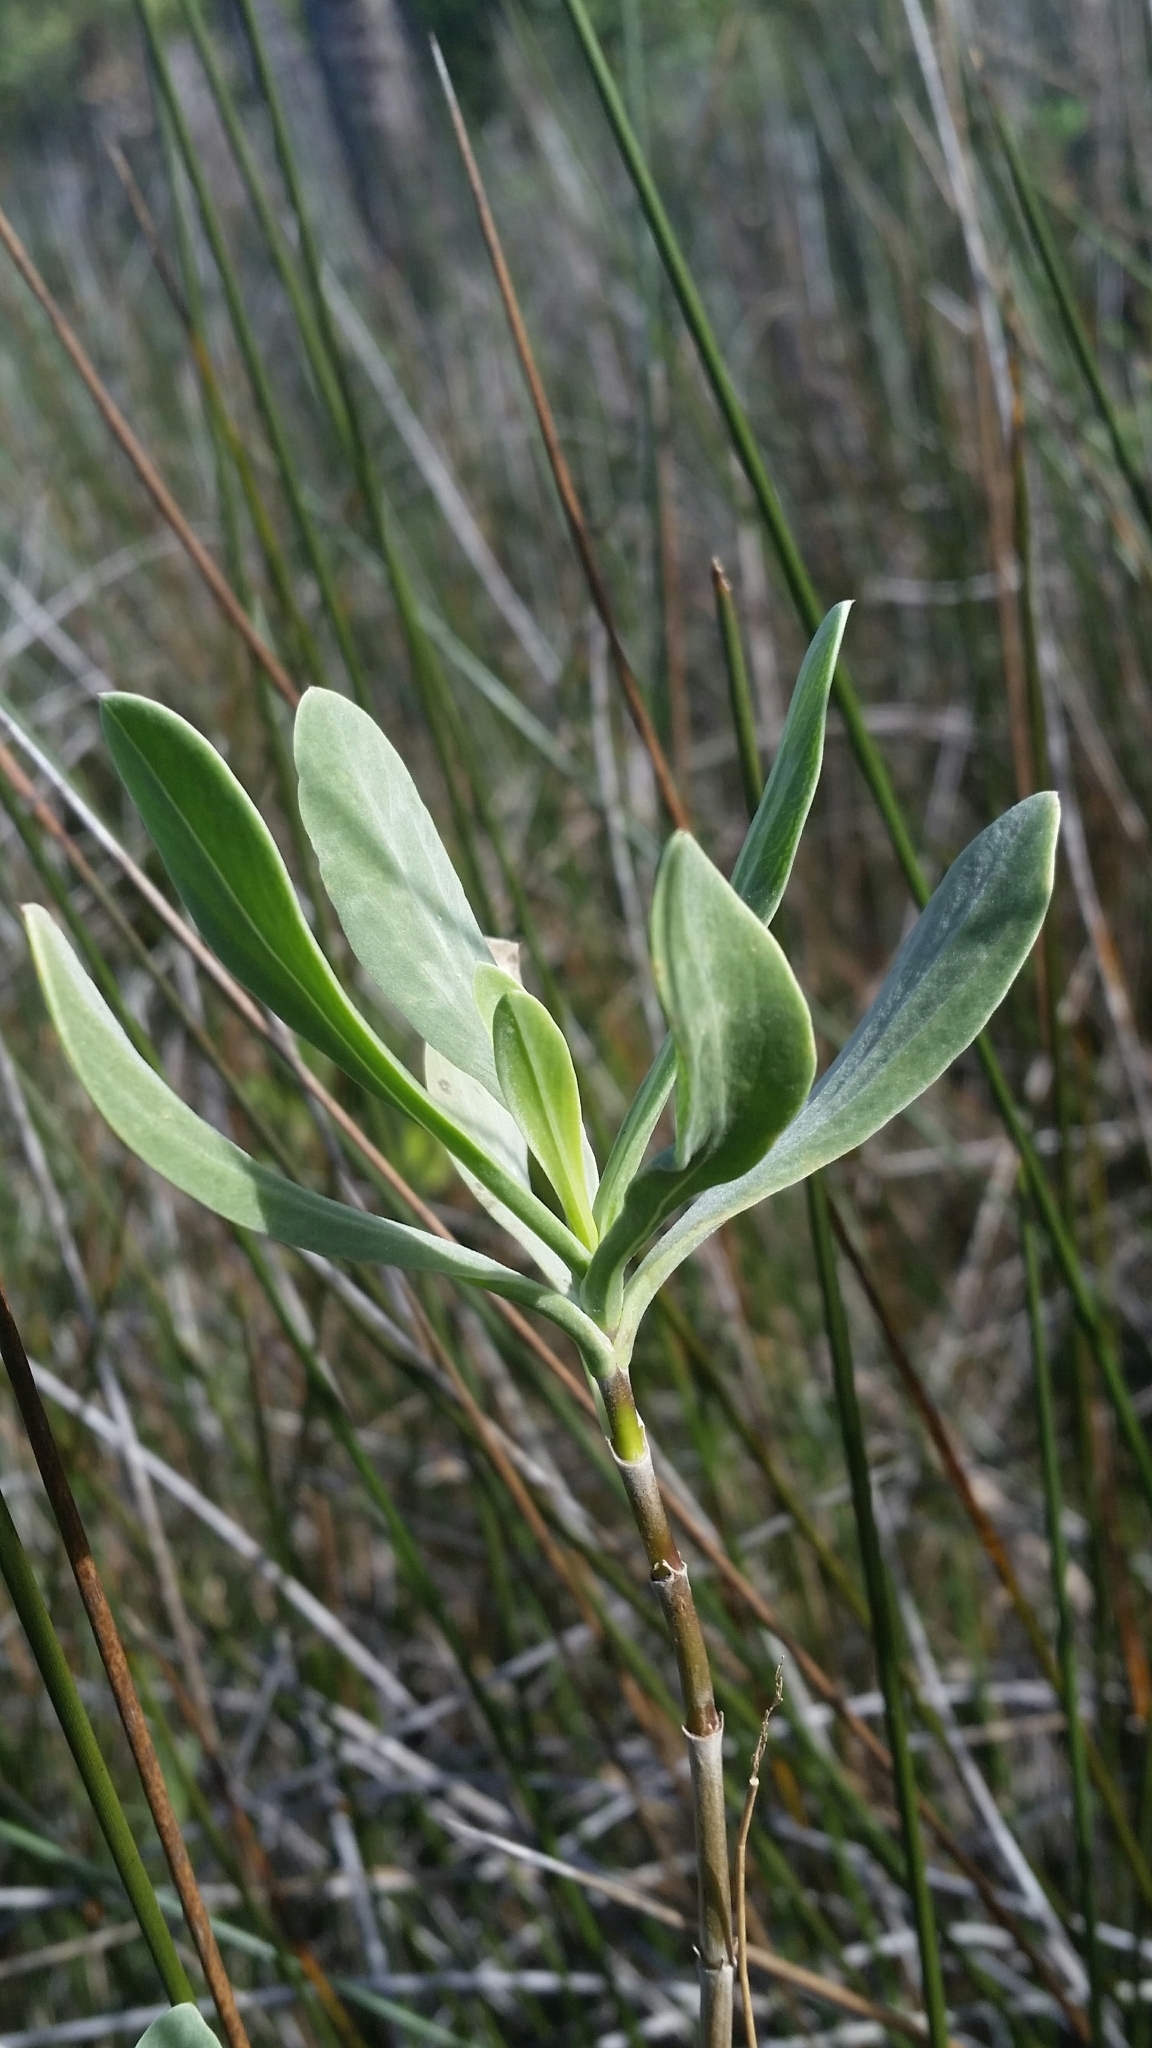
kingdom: Plantae
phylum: Tracheophyta
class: Magnoliopsida
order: Asterales
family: Asteraceae
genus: Borrichia
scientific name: Borrichia frutescens
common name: Sea oxeye
